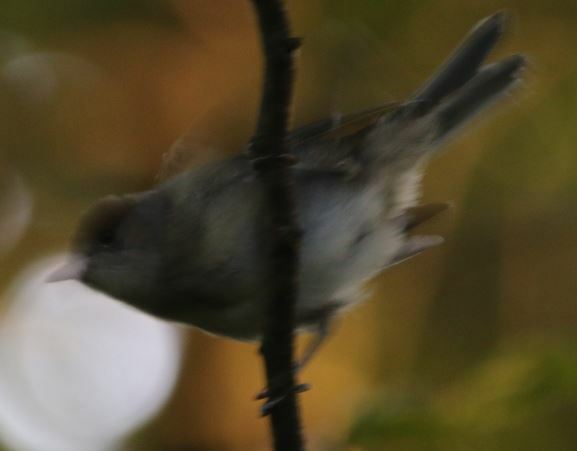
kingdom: Animalia
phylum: Chordata
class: Aves
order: Passeriformes
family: Sylviidae
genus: Sylvia
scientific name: Sylvia atricapilla
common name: Eurasian blackcap
